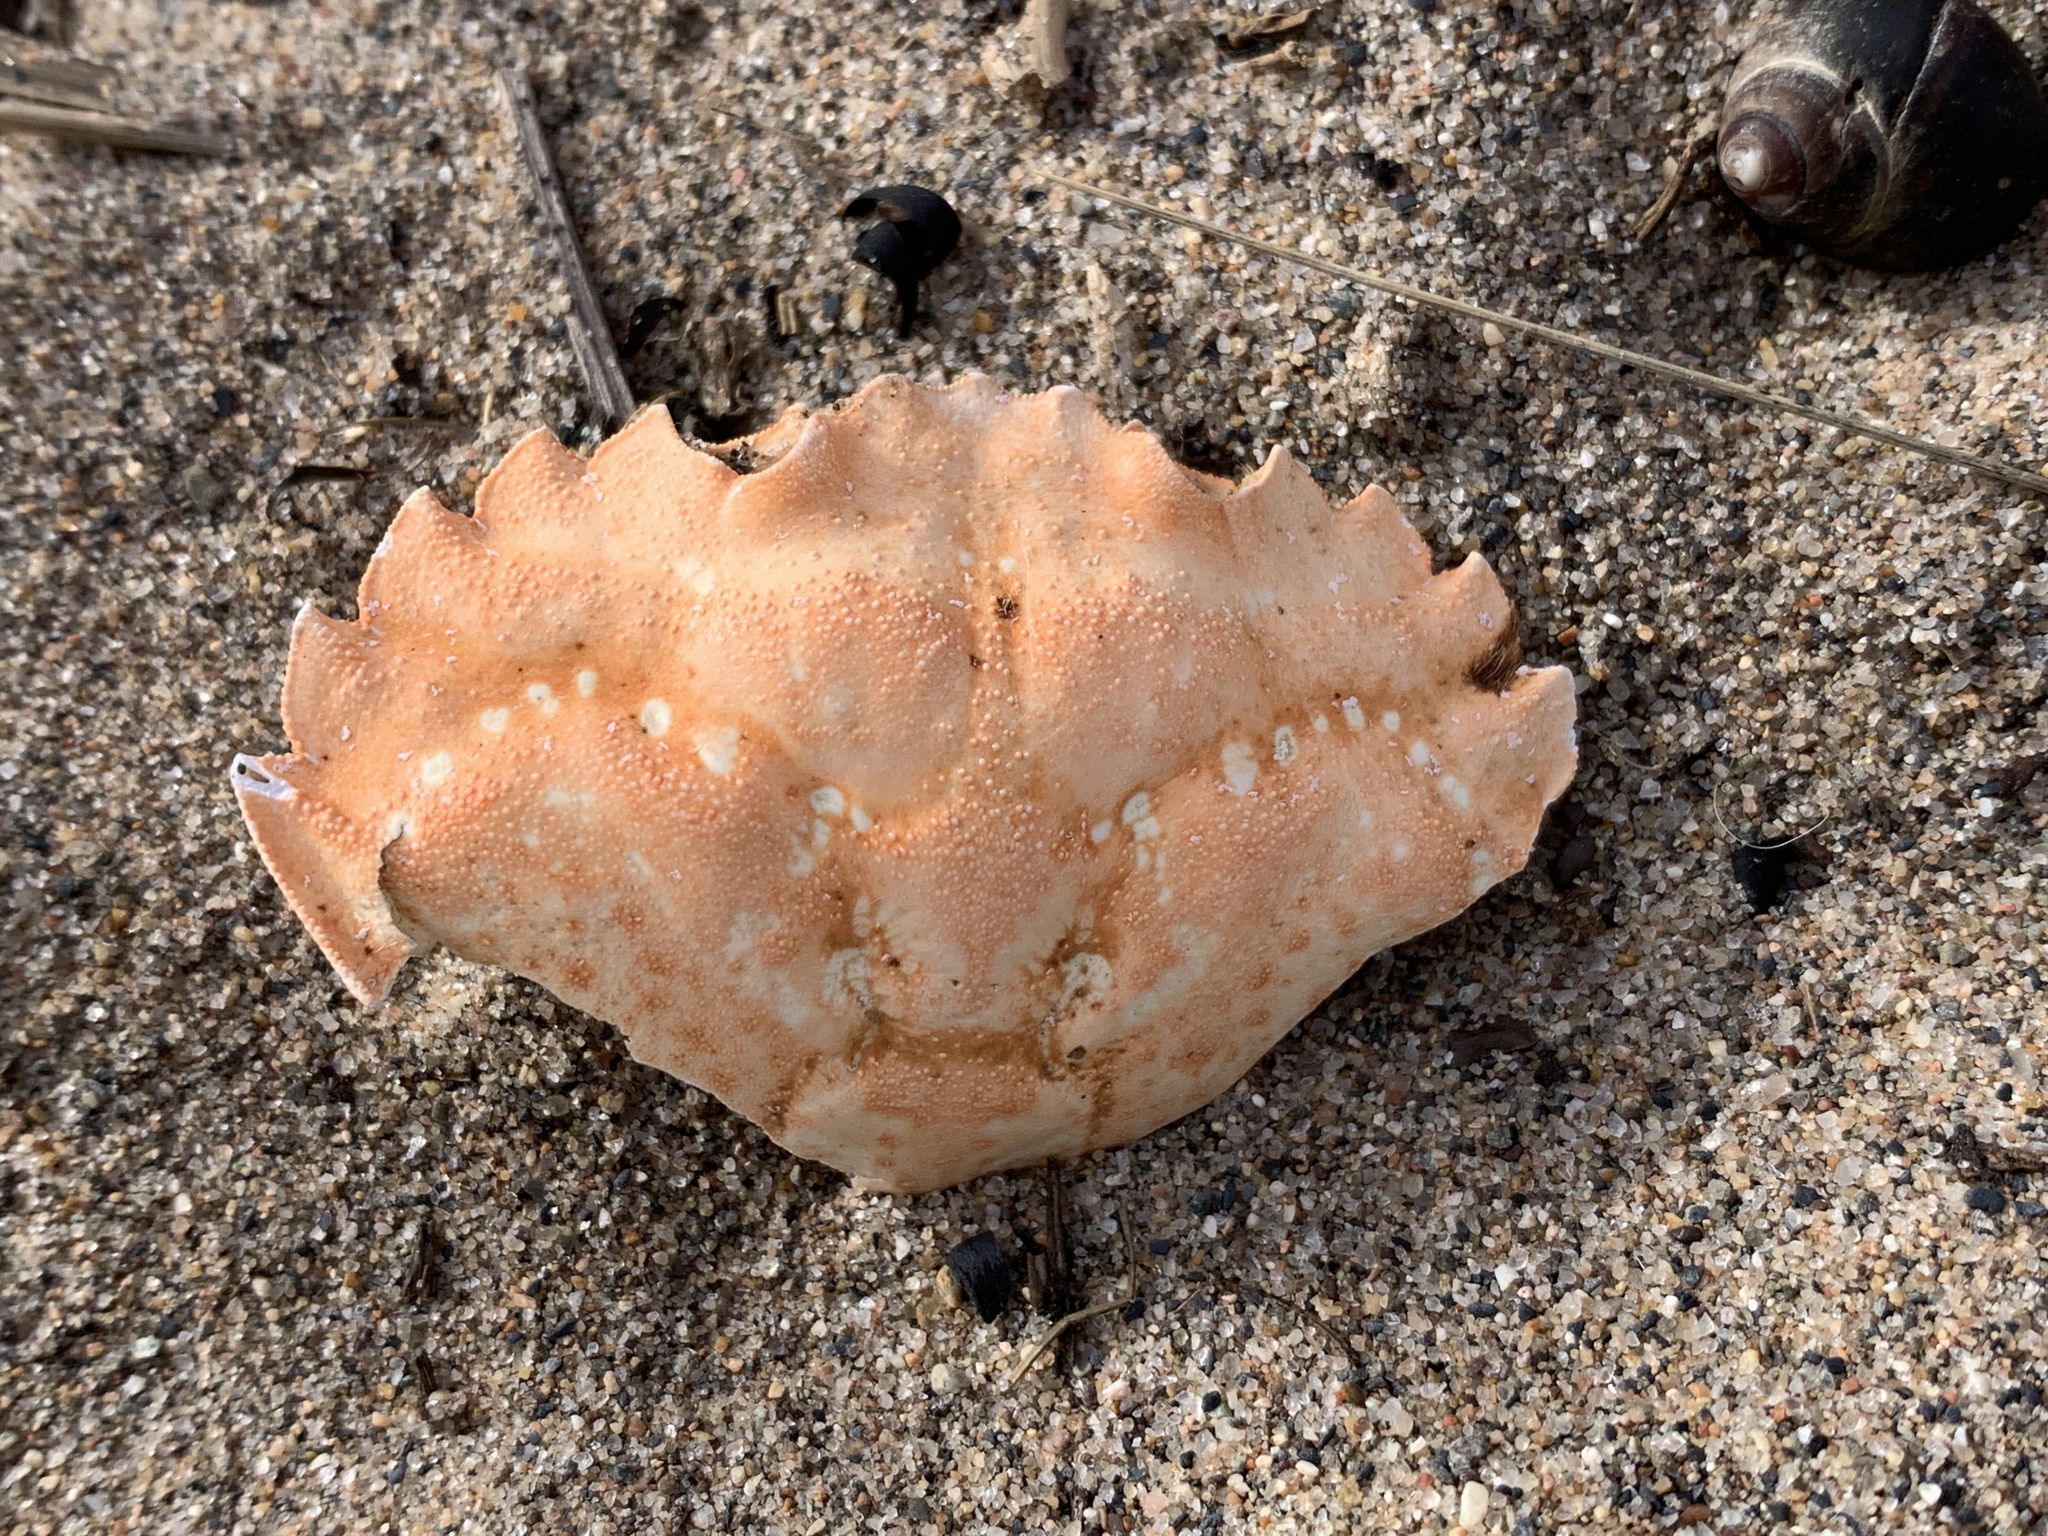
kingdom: Animalia
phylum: Arthropoda
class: Malacostraca
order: Decapoda
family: Carcinidae
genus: Carcinus
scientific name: Carcinus maenas
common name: European green crab
